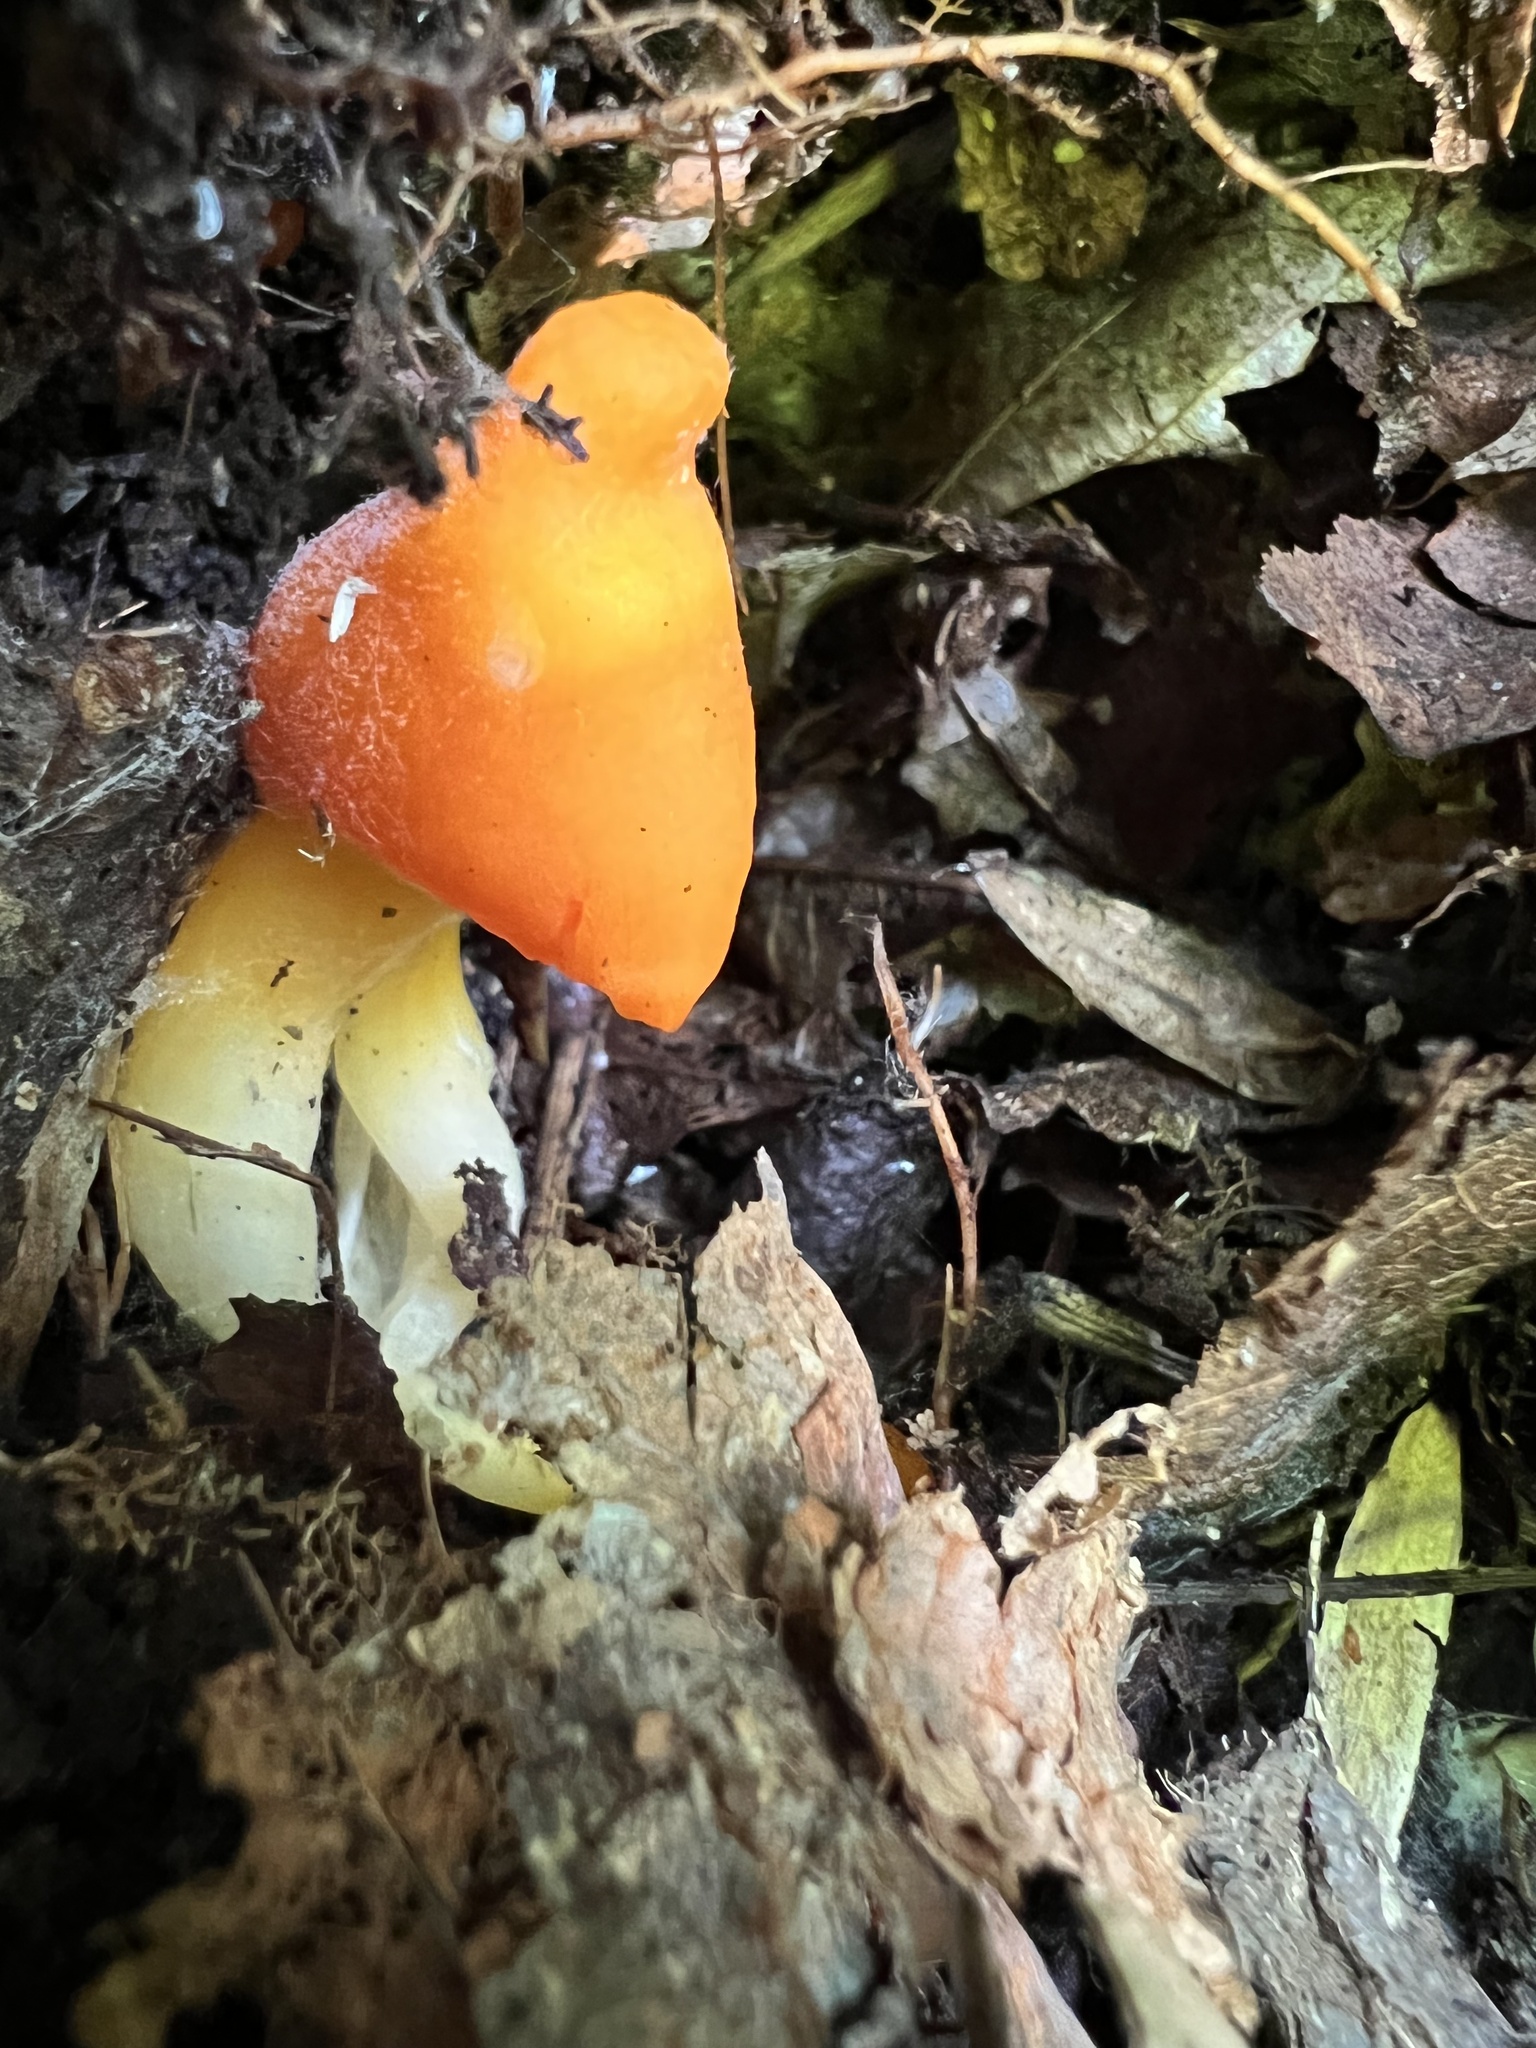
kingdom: Fungi
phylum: Basidiomycota
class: Agaricomycetes
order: Agaricales
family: Hygrophoraceae
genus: Humidicutis
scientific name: Humidicutis marginata
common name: Orange gilled waxcap
